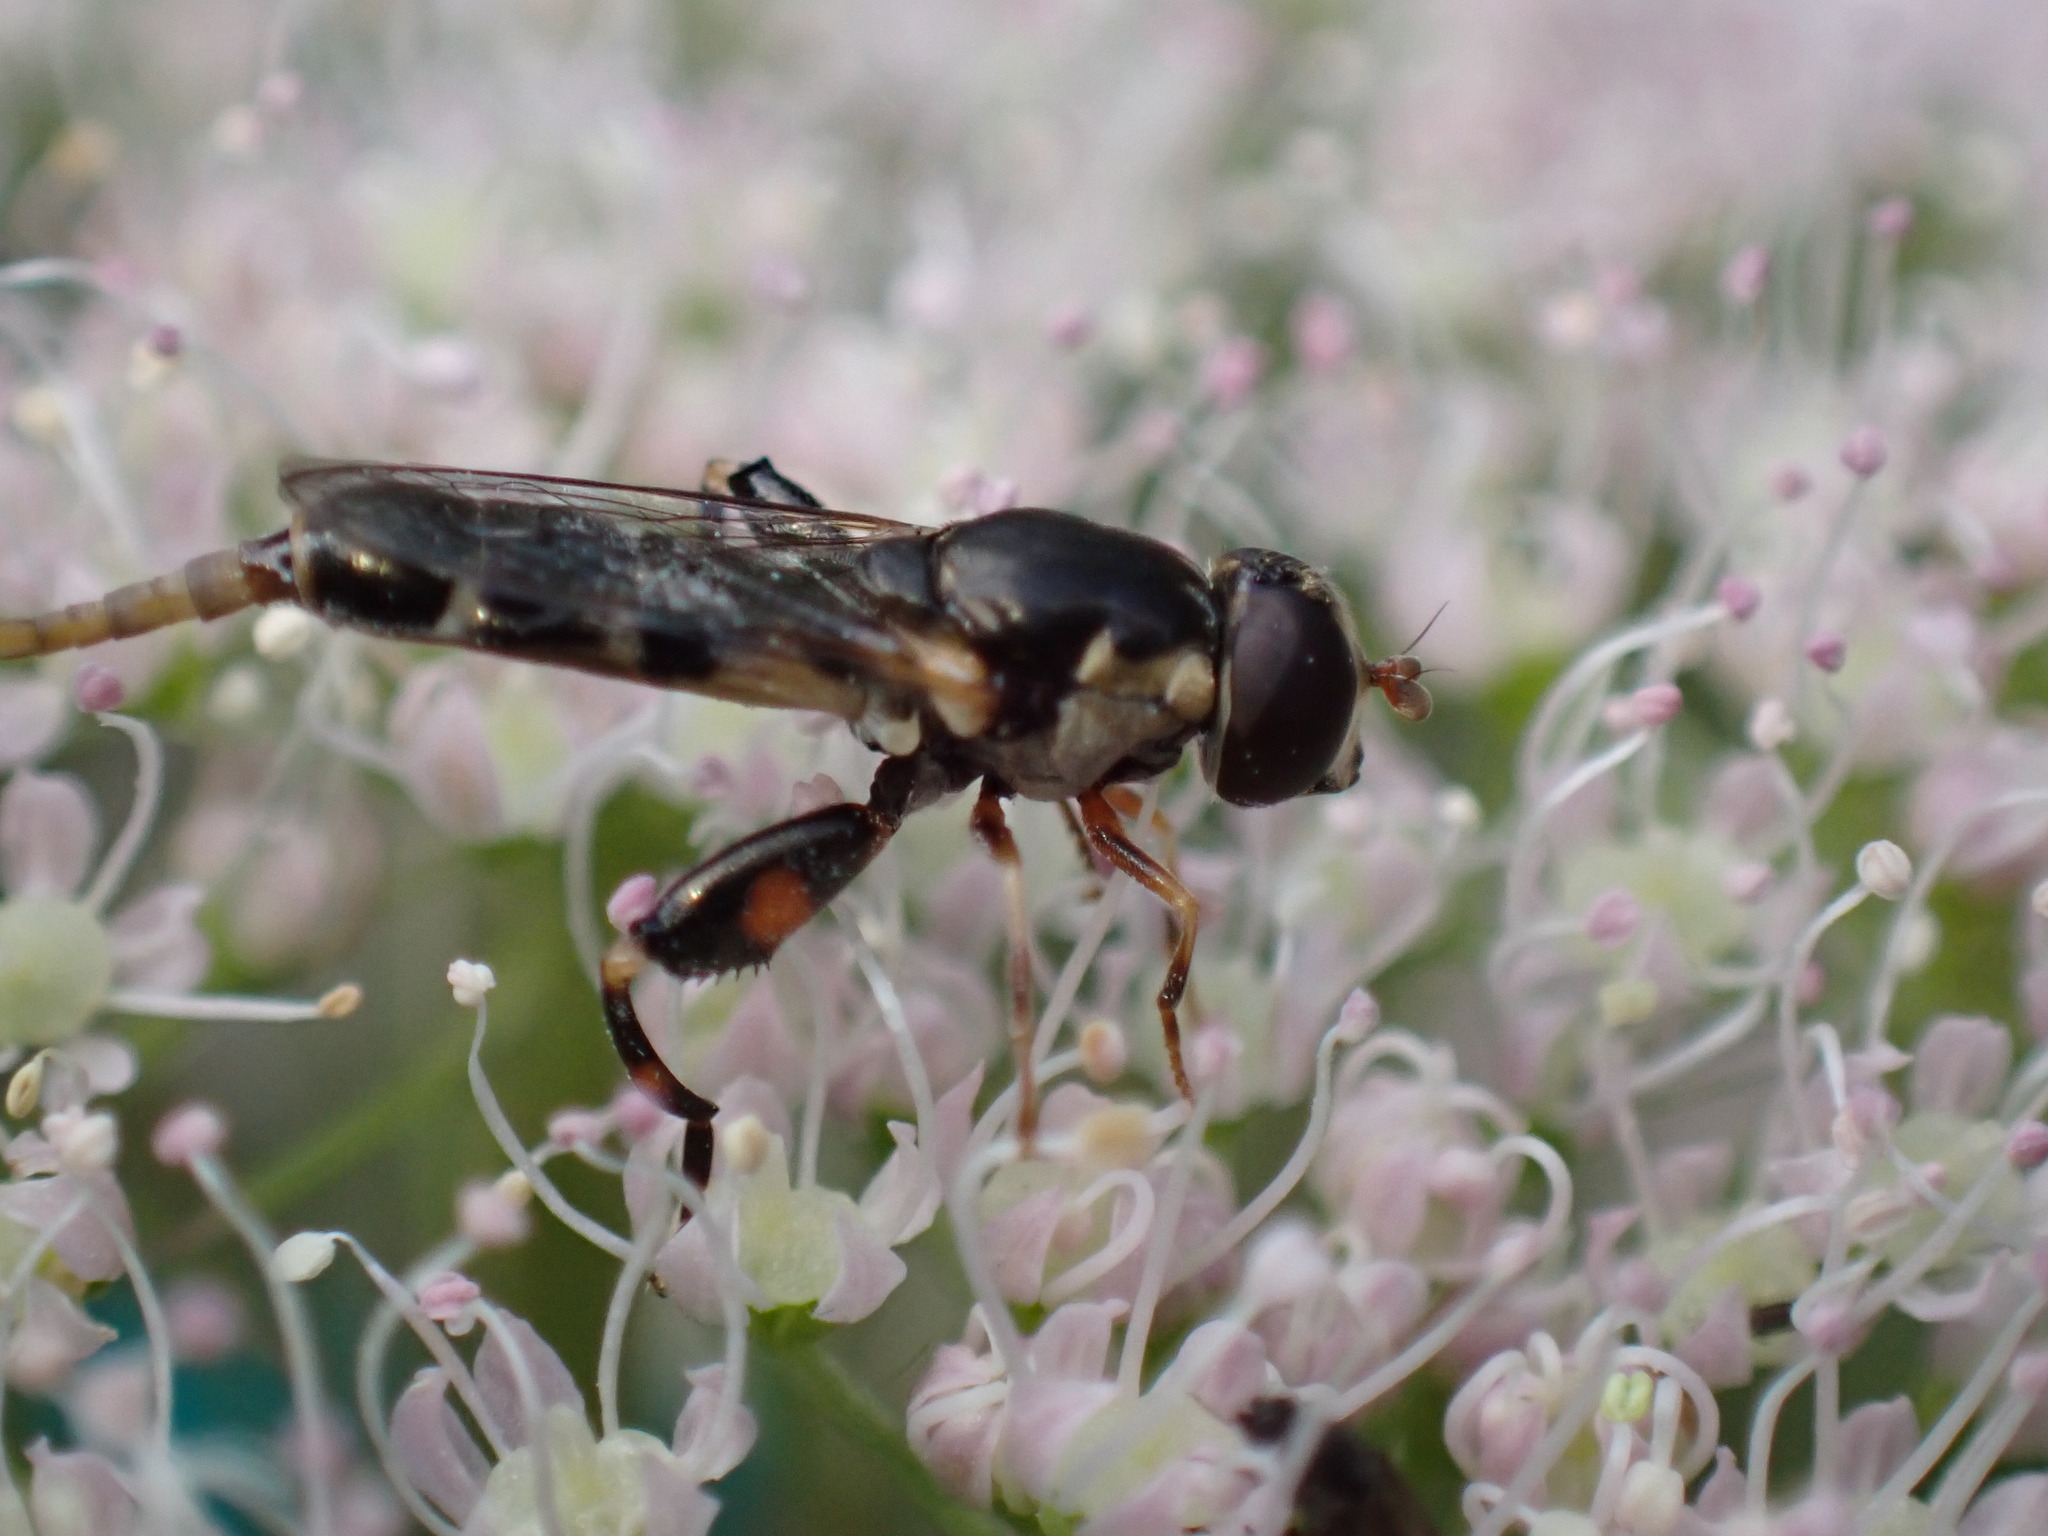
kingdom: Animalia
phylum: Arthropoda
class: Insecta
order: Diptera
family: Syrphidae
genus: Syritta
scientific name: Syritta pipiens
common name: Hover fly
